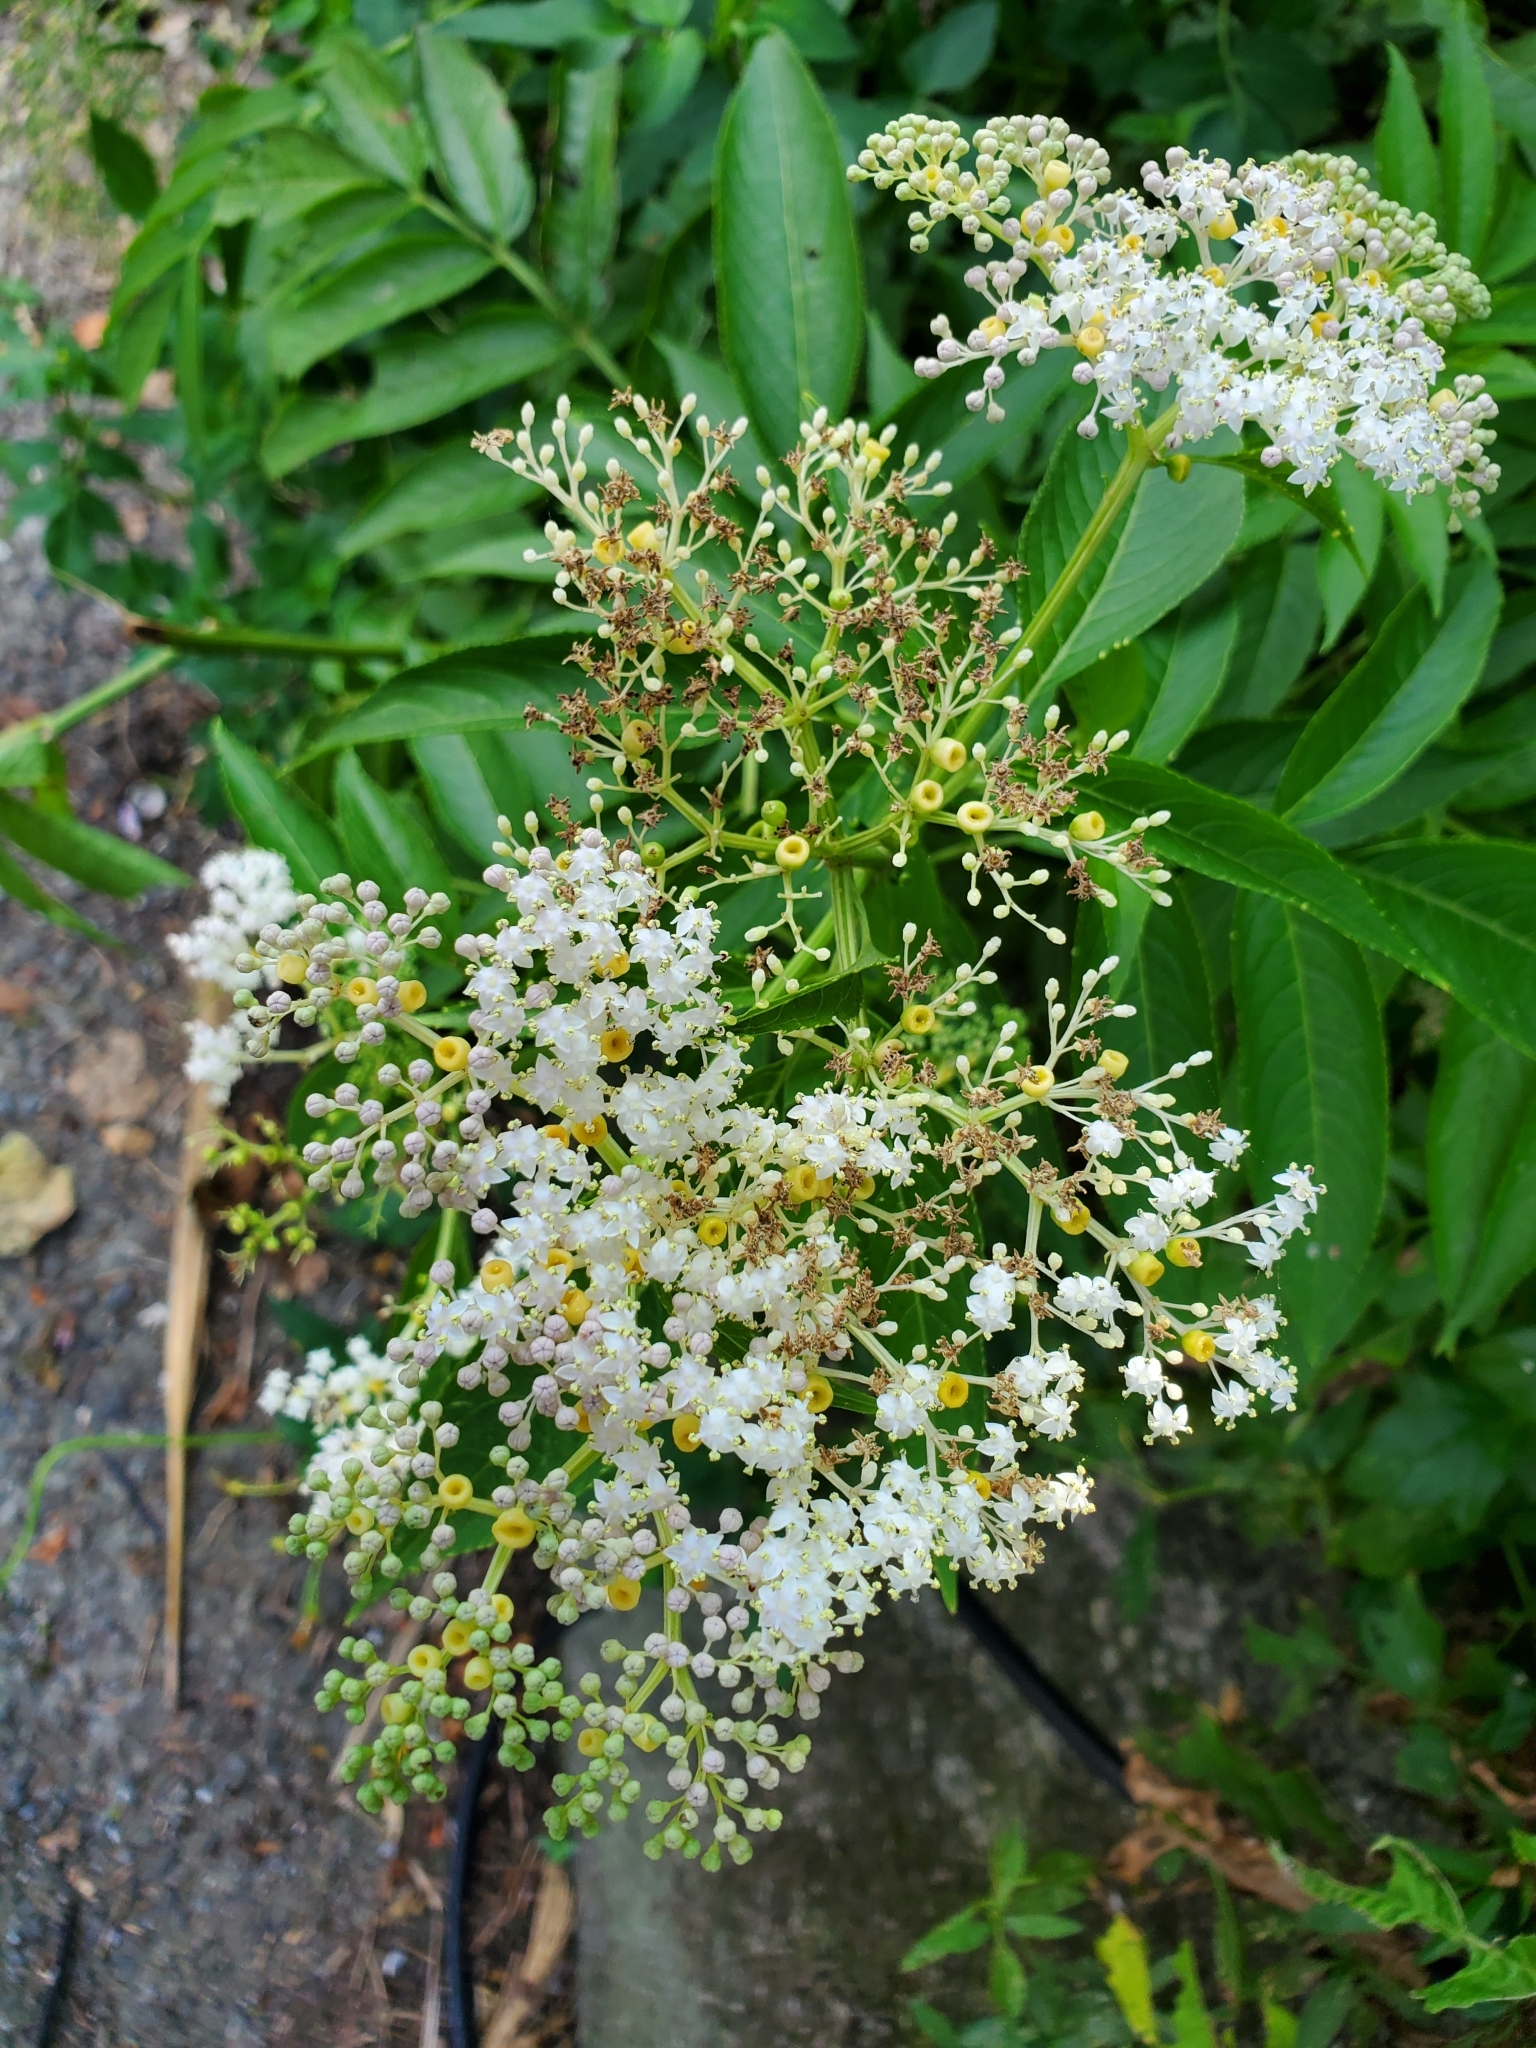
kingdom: Plantae
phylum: Tracheophyta
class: Magnoliopsida
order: Dipsacales
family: Viburnaceae
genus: Sambucus
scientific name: Sambucus javanica
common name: Chinese elder
